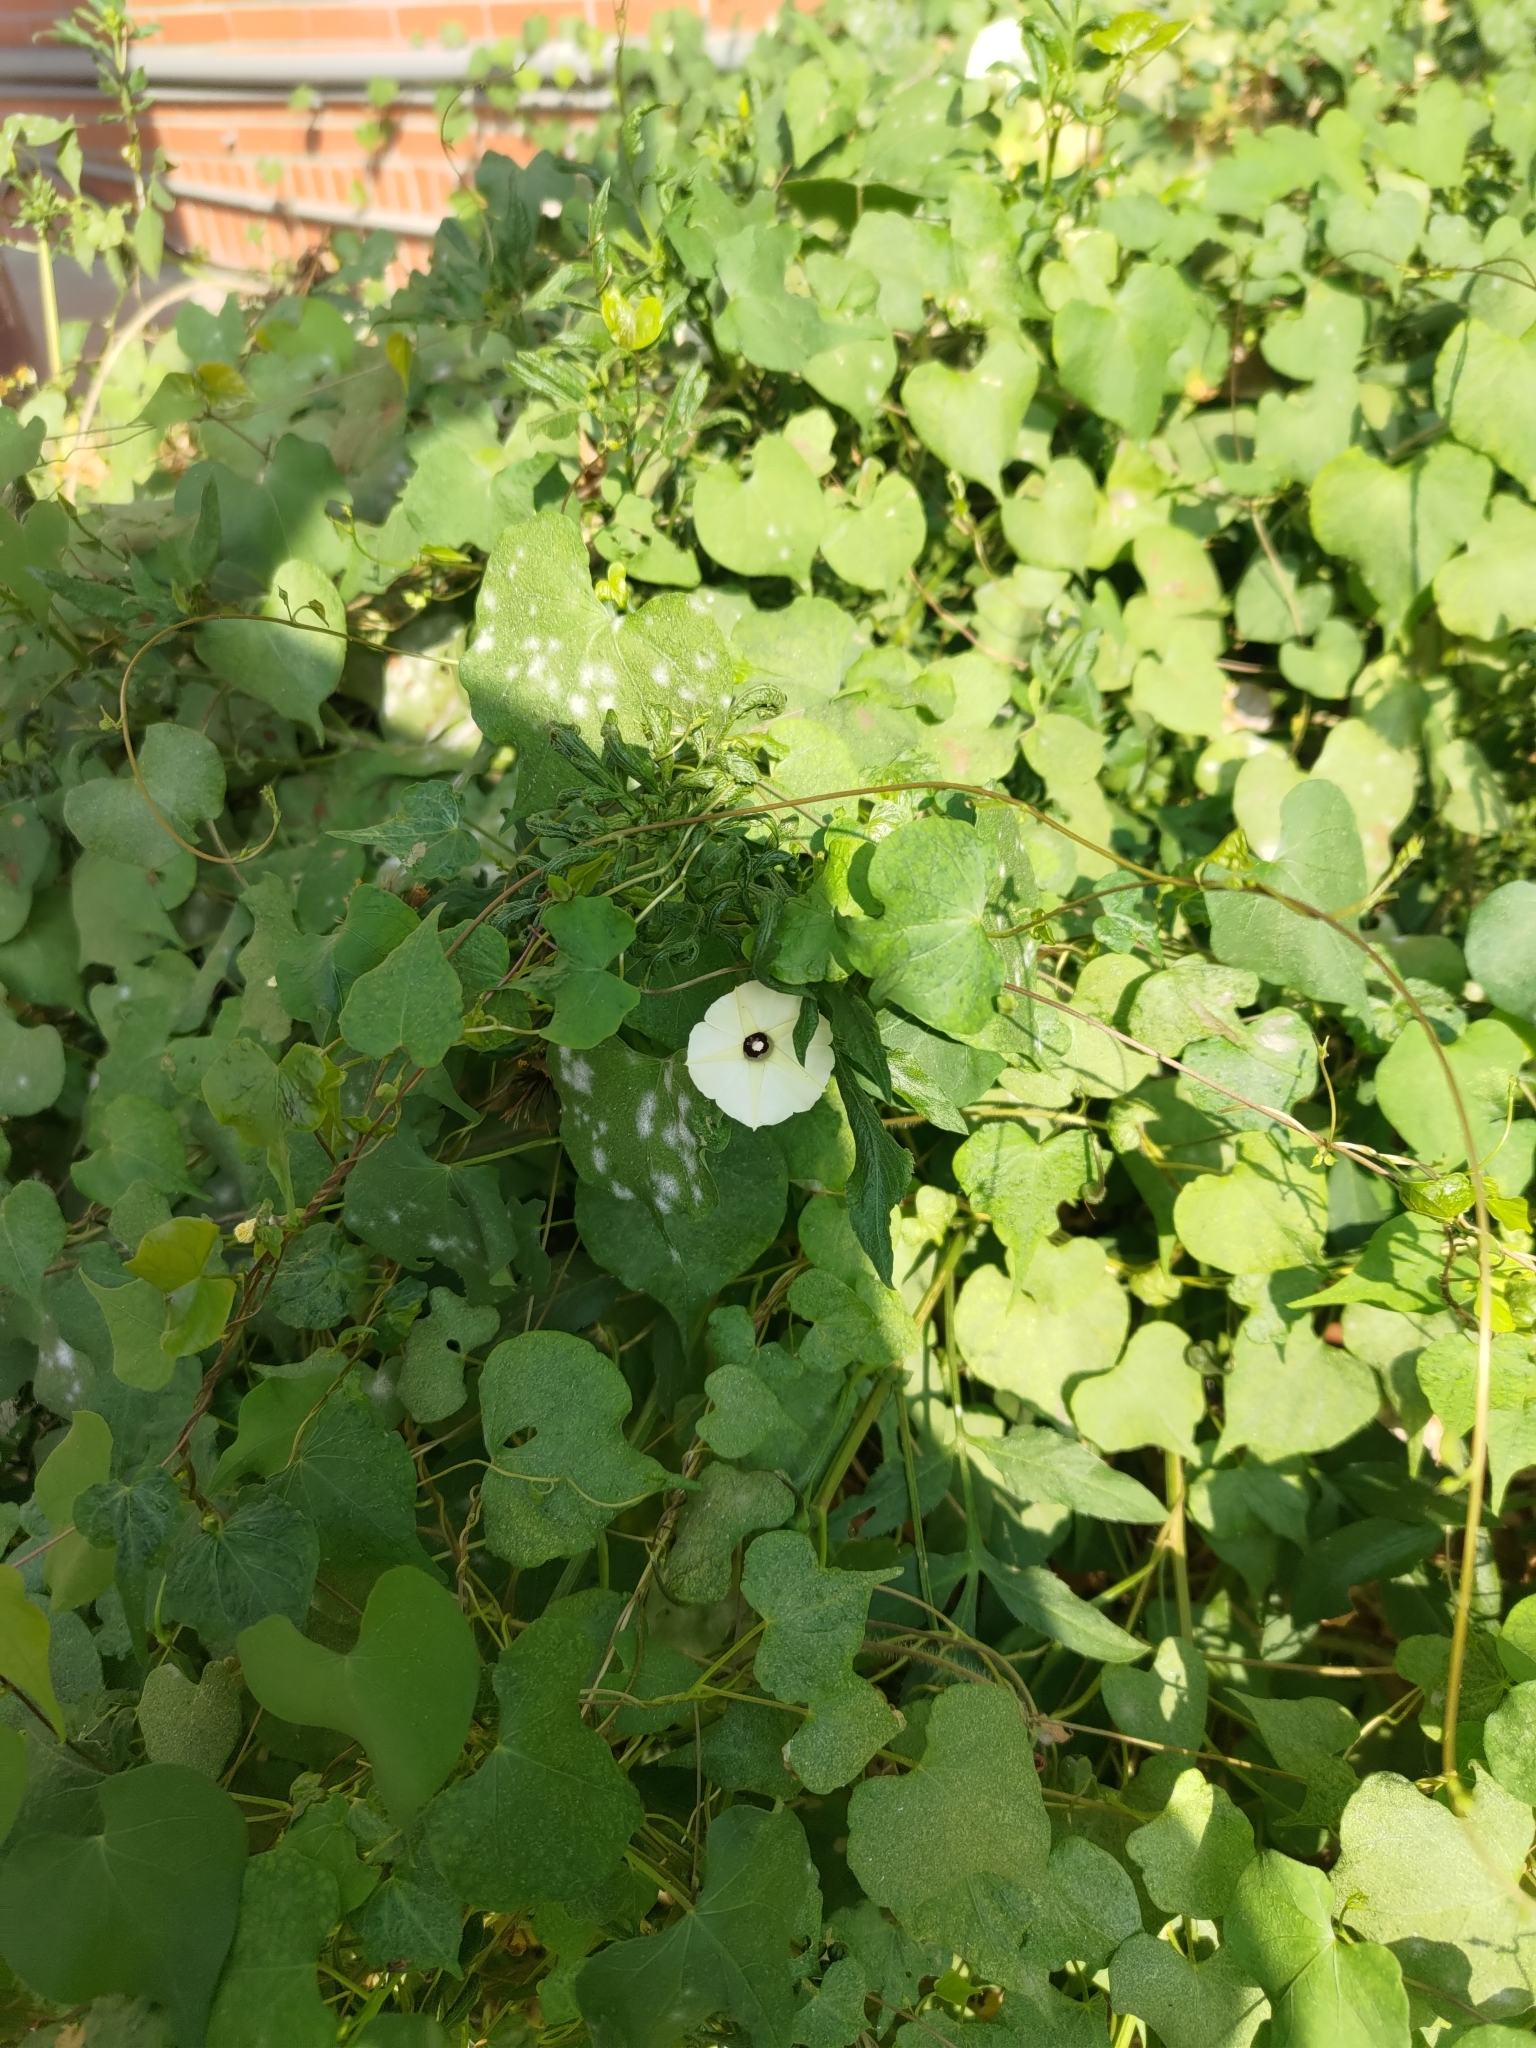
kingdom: Plantae
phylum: Tracheophyta
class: Magnoliopsida
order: Solanales
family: Convolvulaceae
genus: Ipomoea
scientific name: Ipomoea obscura
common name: Obscure morning-glory
